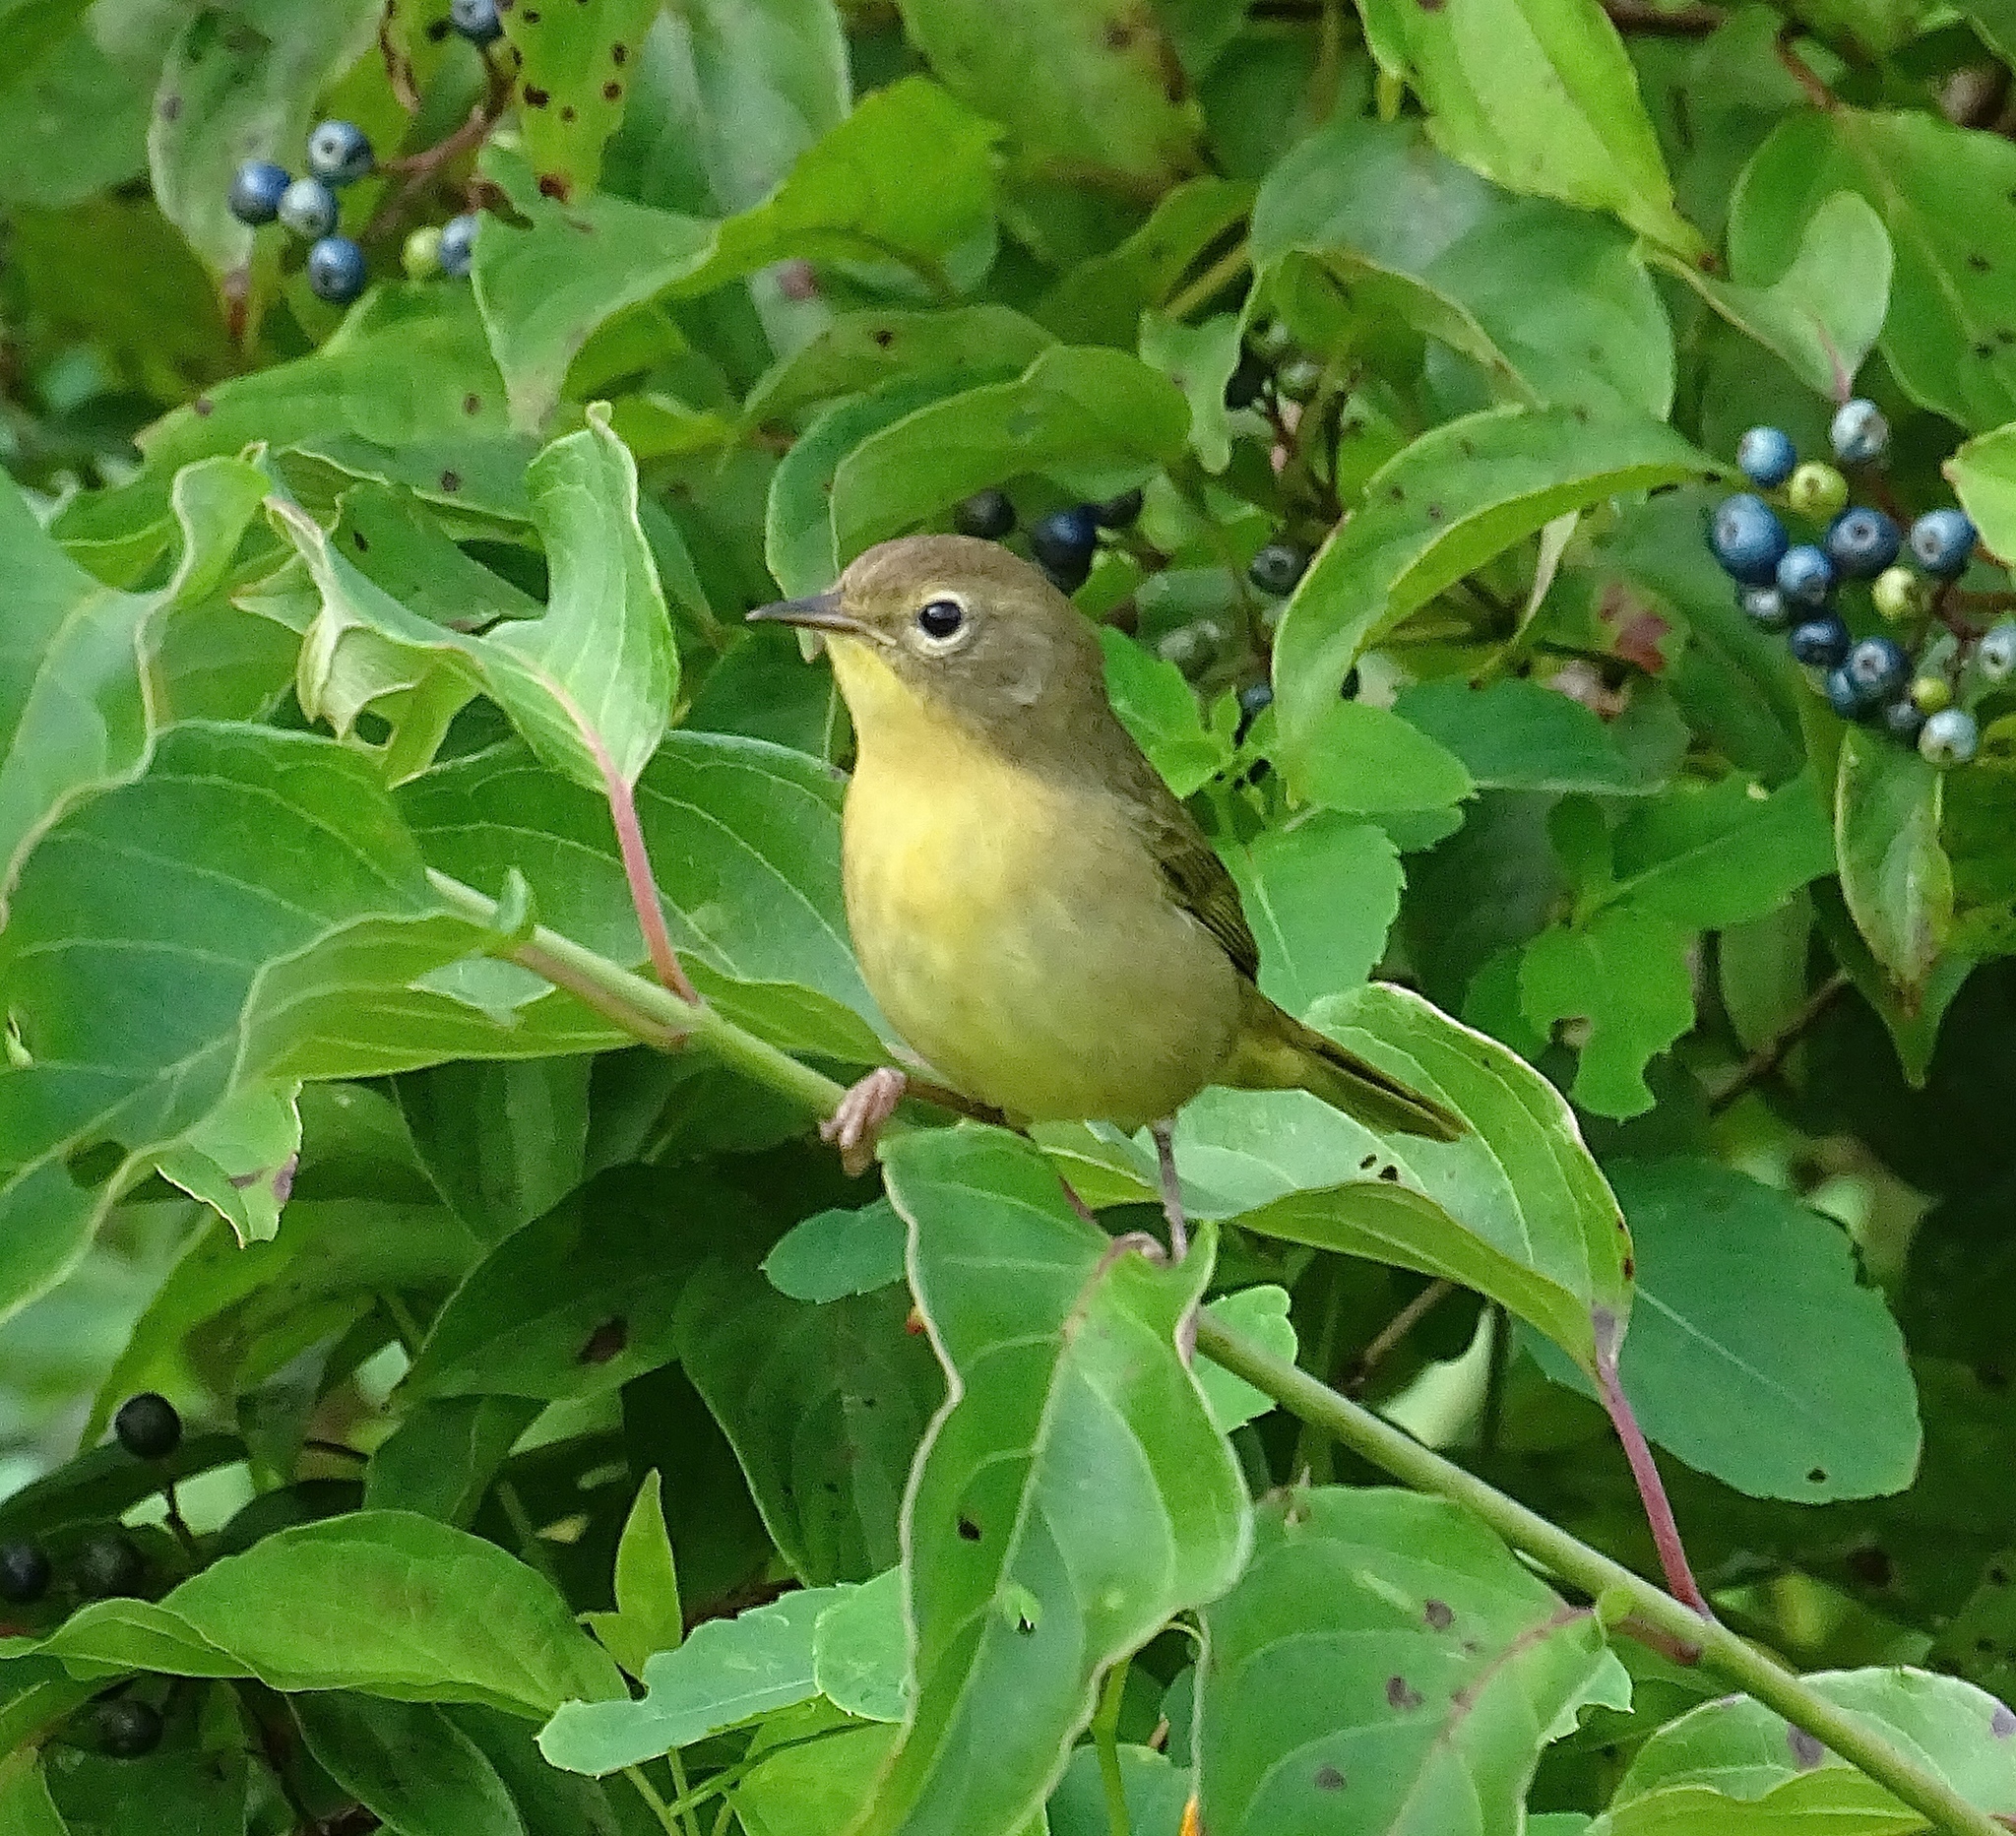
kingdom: Animalia
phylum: Chordata
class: Aves
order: Passeriformes
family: Parulidae
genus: Geothlypis
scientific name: Geothlypis trichas
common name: Common yellowthroat
